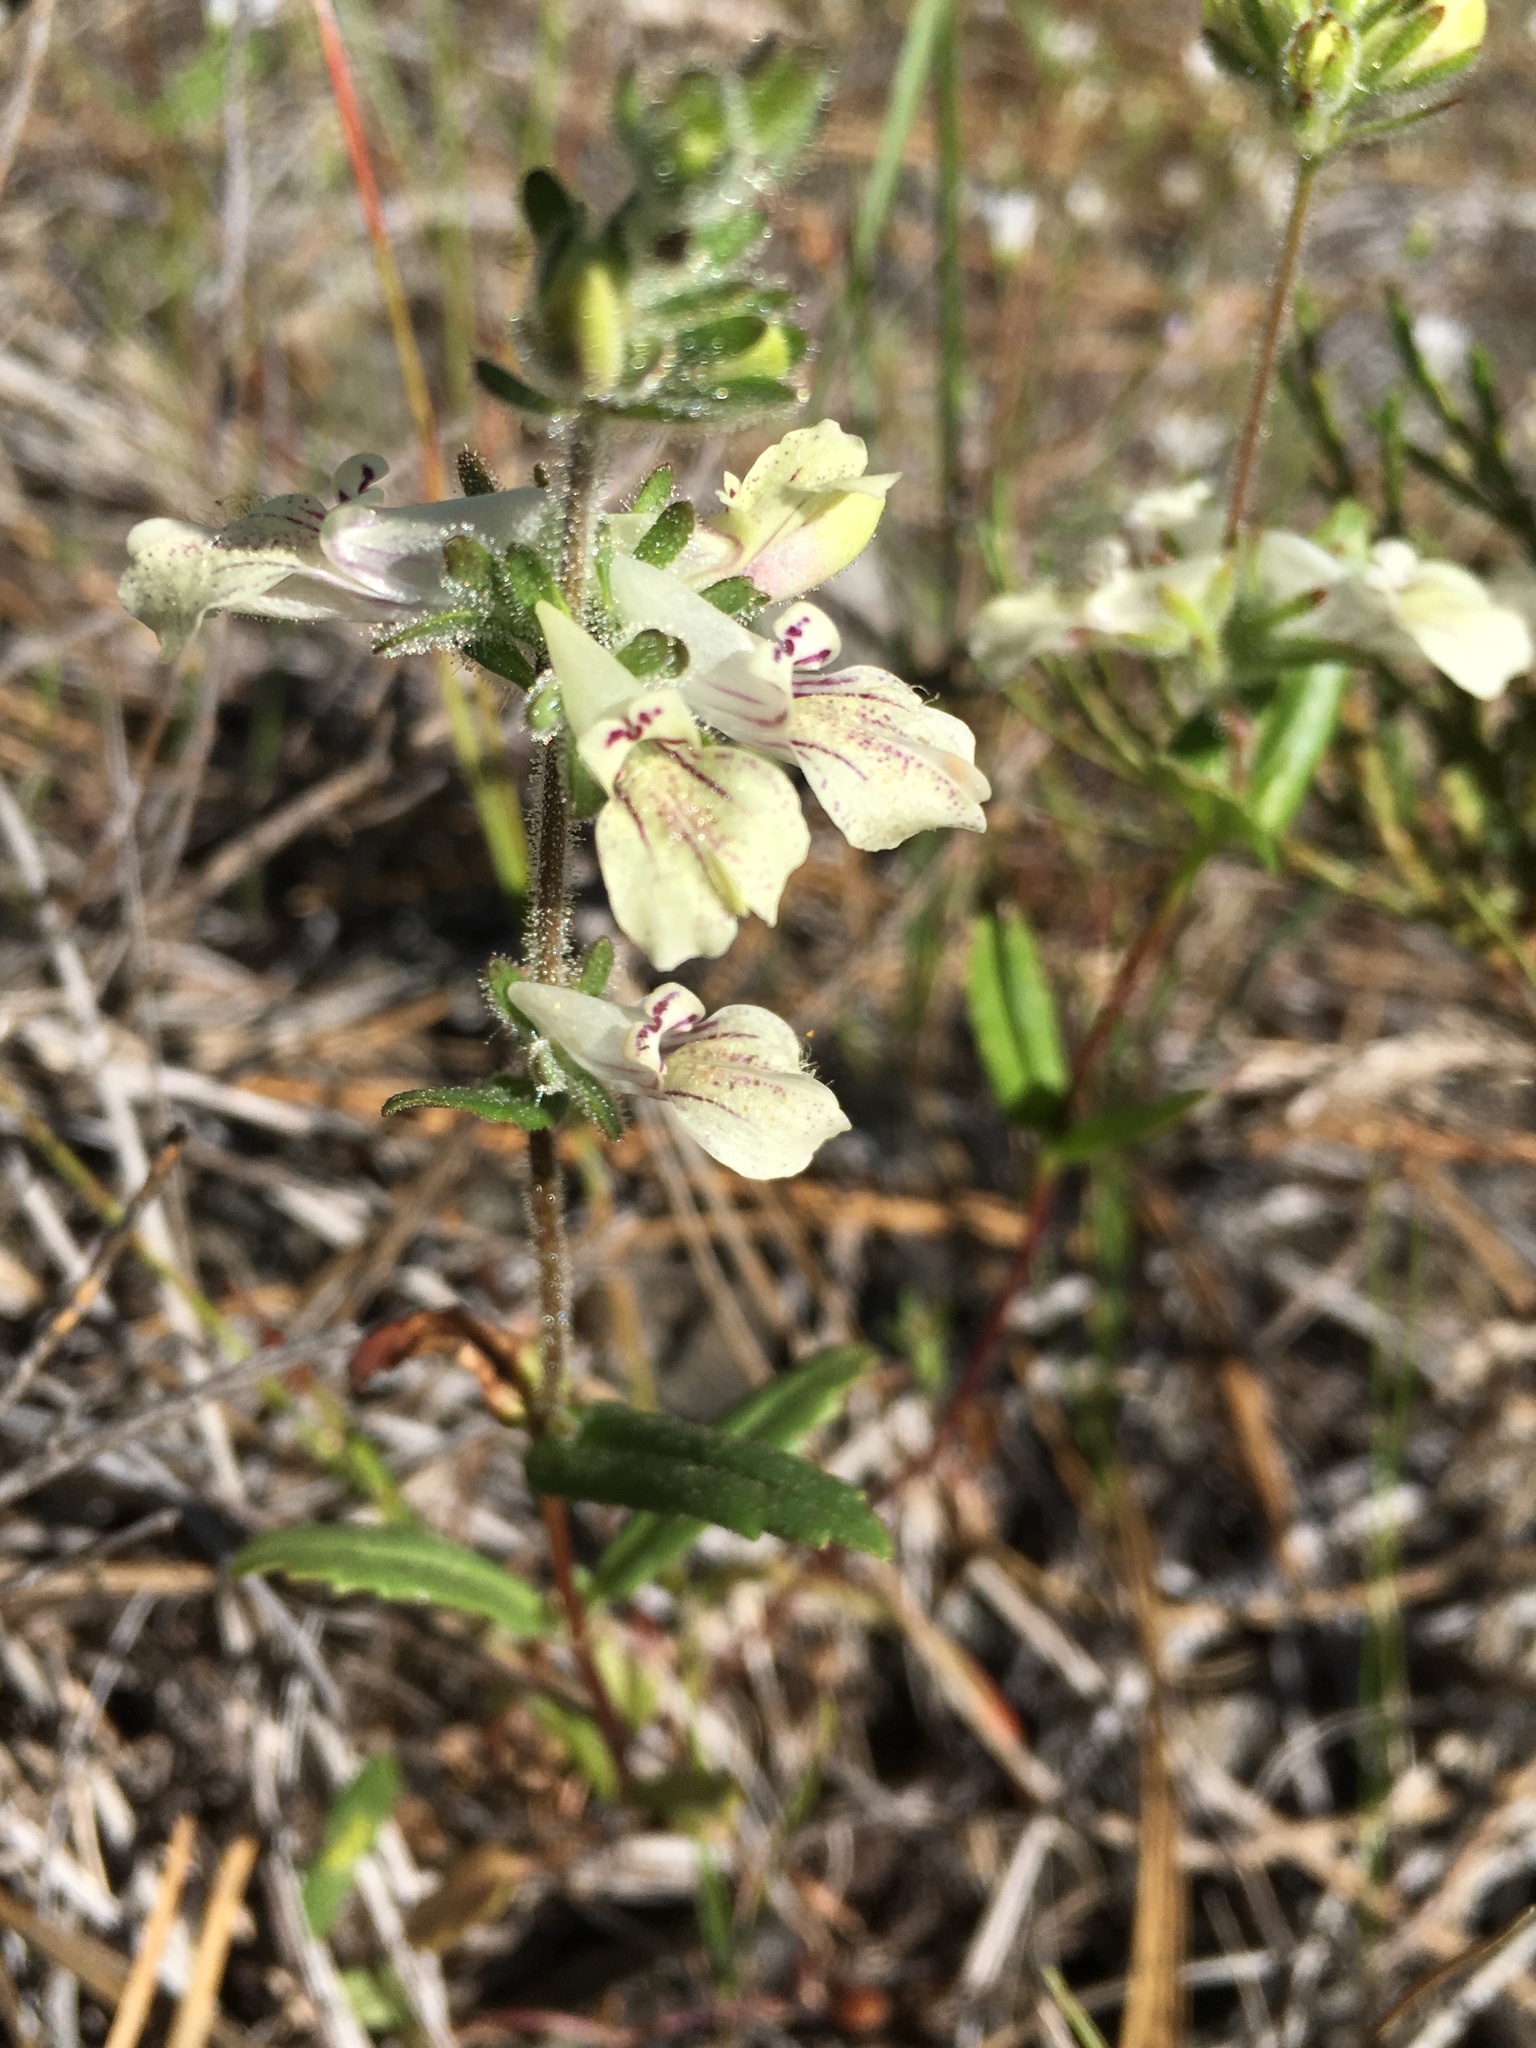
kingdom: Plantae
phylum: Tracheophyta
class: Magnoliopsida
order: Lamiales
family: Plantaginaceae
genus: Collinsia
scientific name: Collinsia tinctoria
